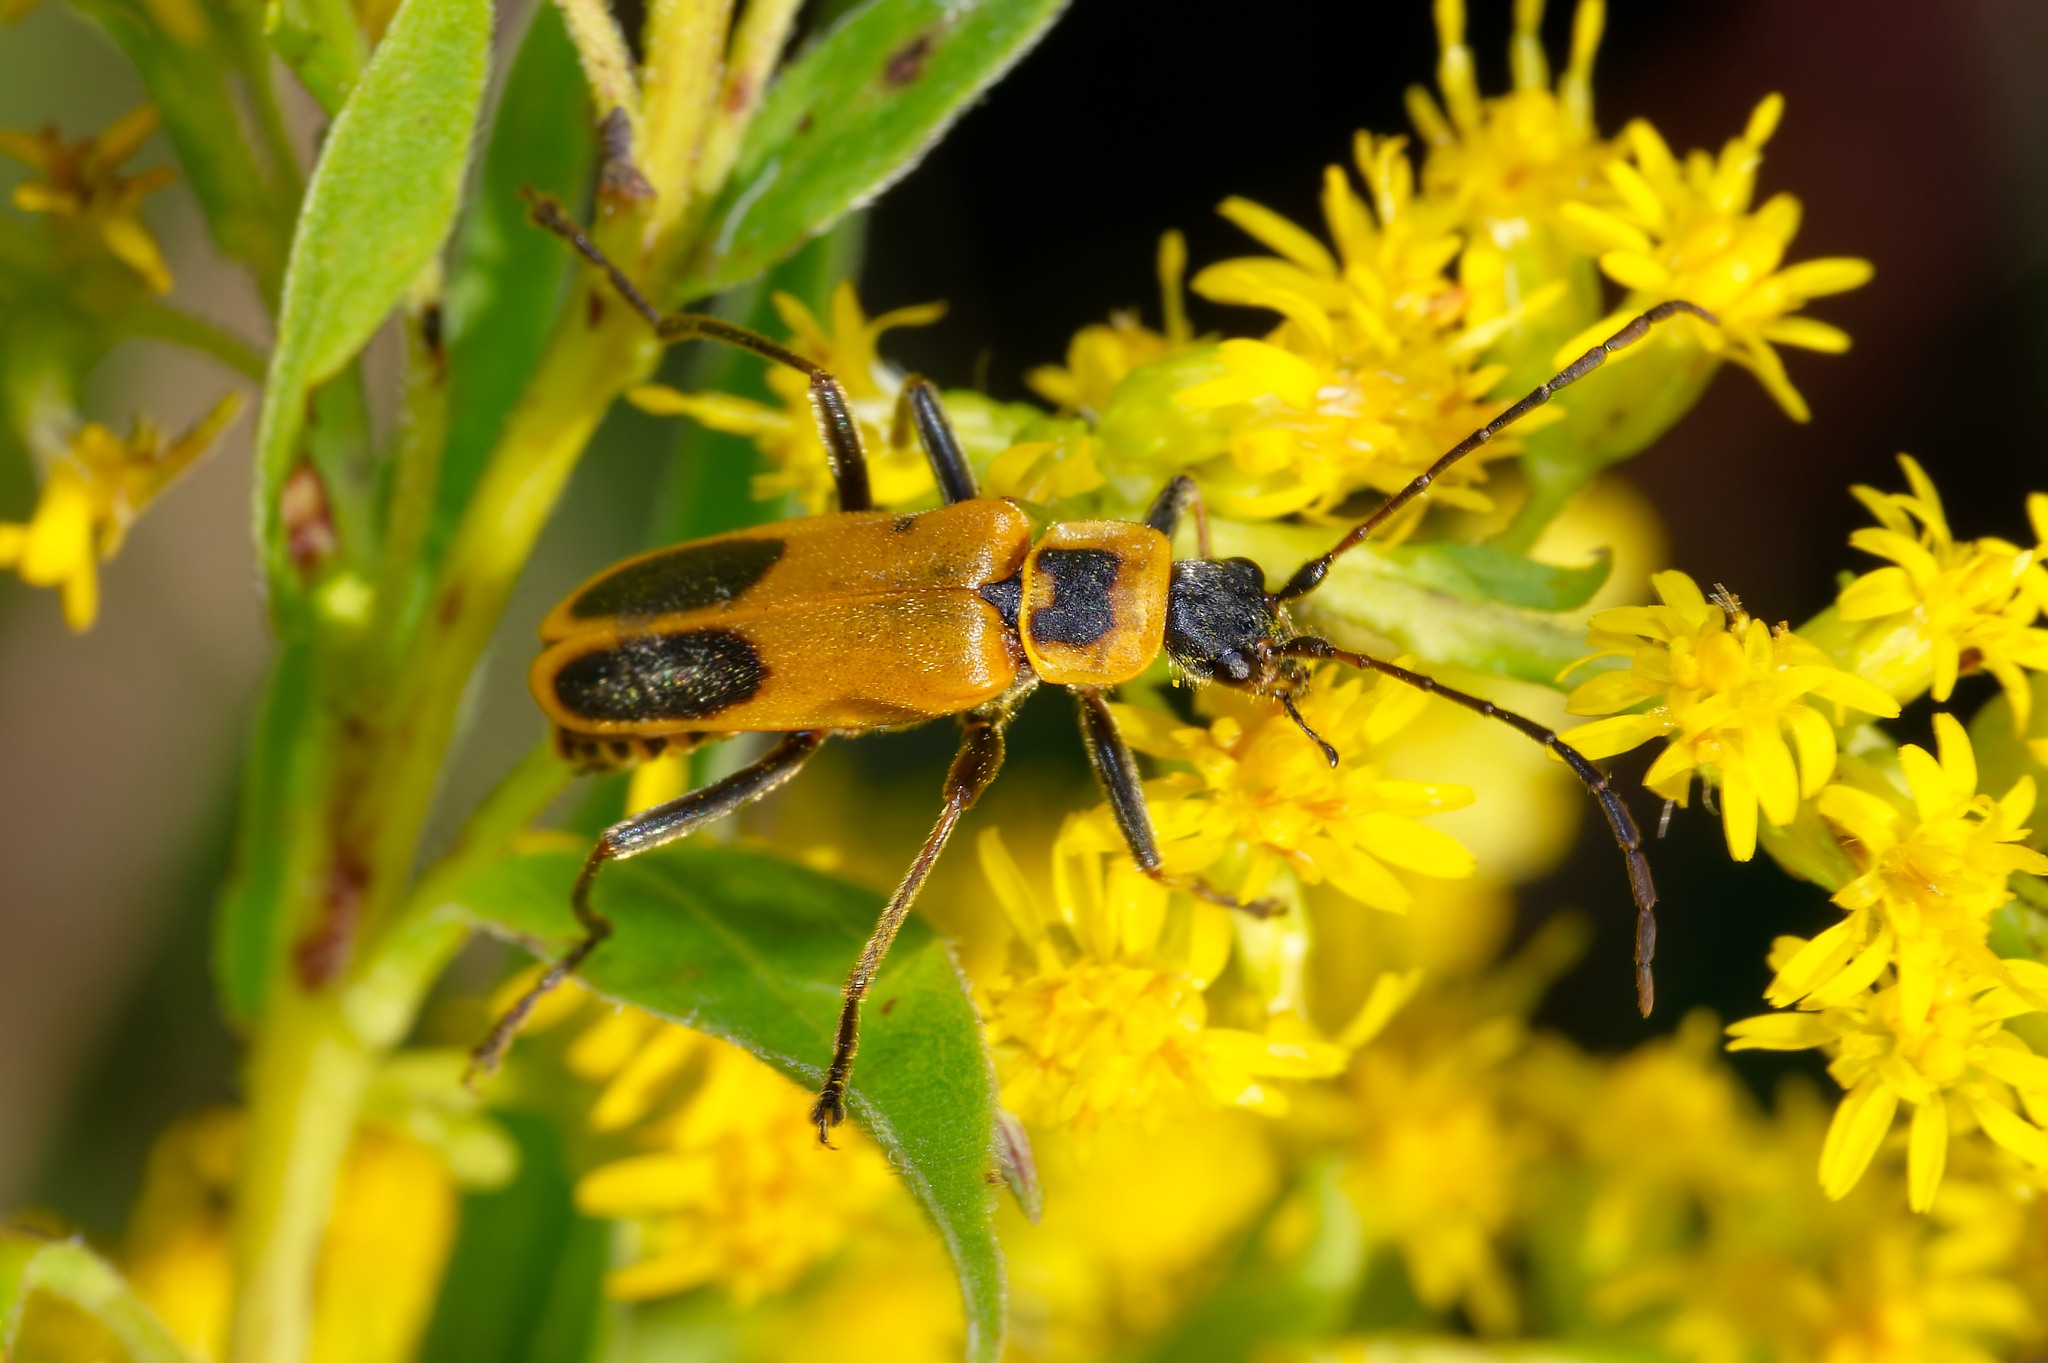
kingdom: Animalia
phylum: Arthropoda
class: Insecta
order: Coleoptera
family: Cantharidae
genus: Chauliognathus
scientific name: Chauliognathus pensylvanicus
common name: Goldenrod soldier beetle
